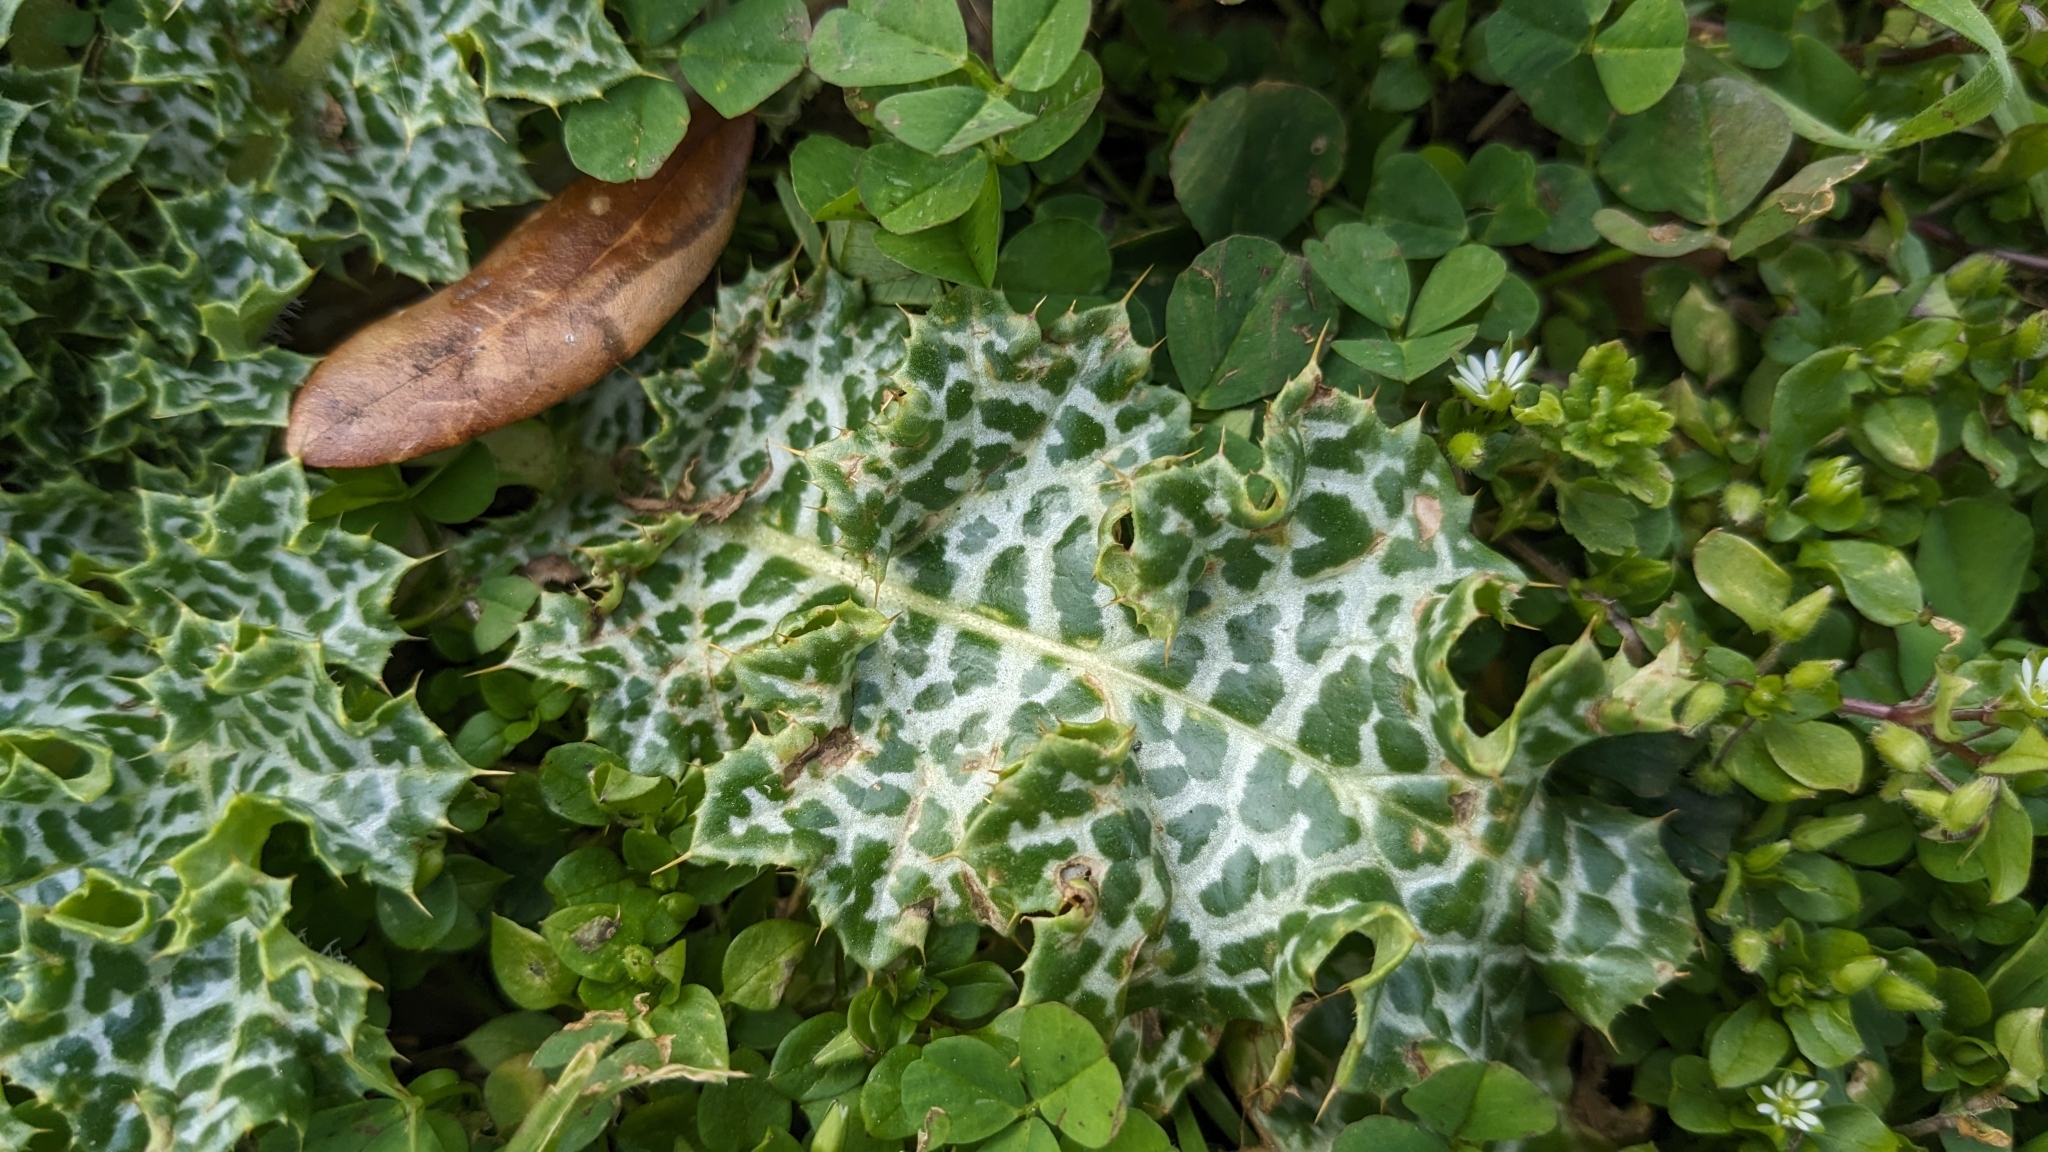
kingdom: Plantae
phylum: Tracheophyta
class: Magnoliopsida
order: Asterales
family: Asteraceae
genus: Silybum
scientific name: Silybum marianum
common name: Milk thistle
